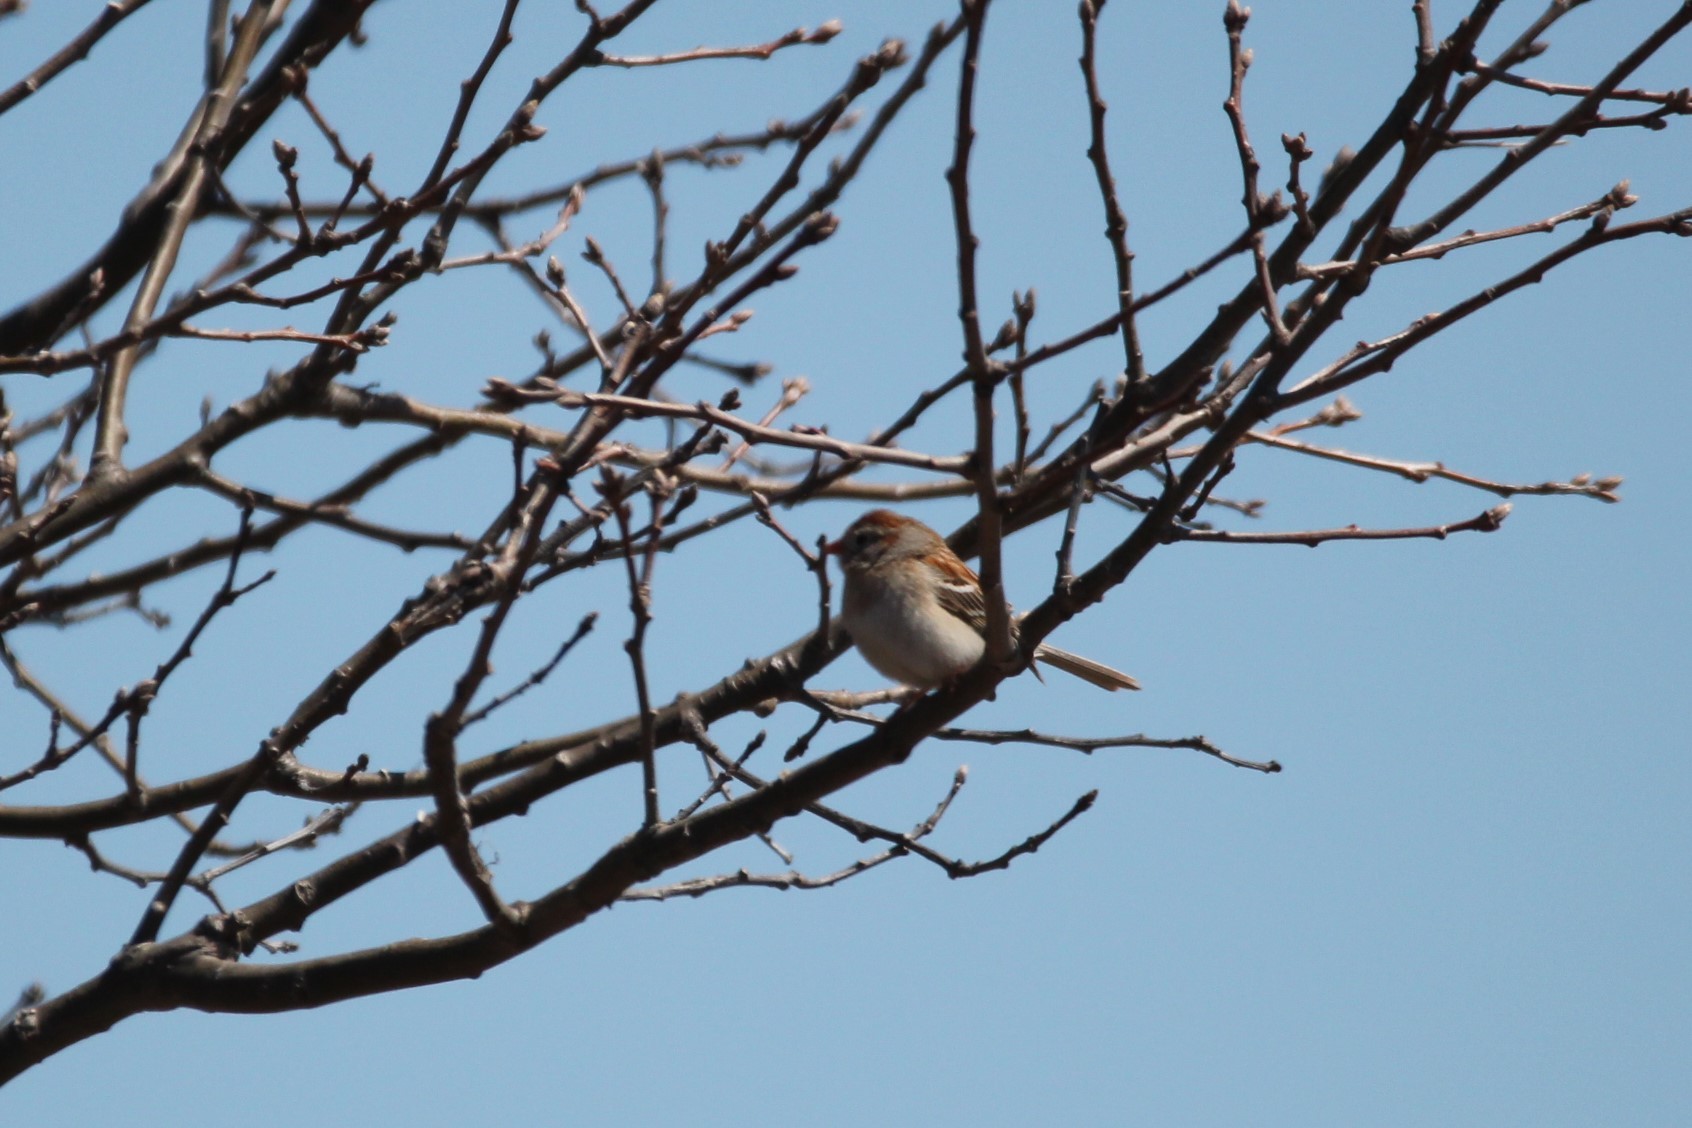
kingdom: Animalia
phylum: Chordata
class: Aves
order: Passeriformes
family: Passerellidae
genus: Spizella
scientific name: Spizella pusilla
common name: Field sparrow
